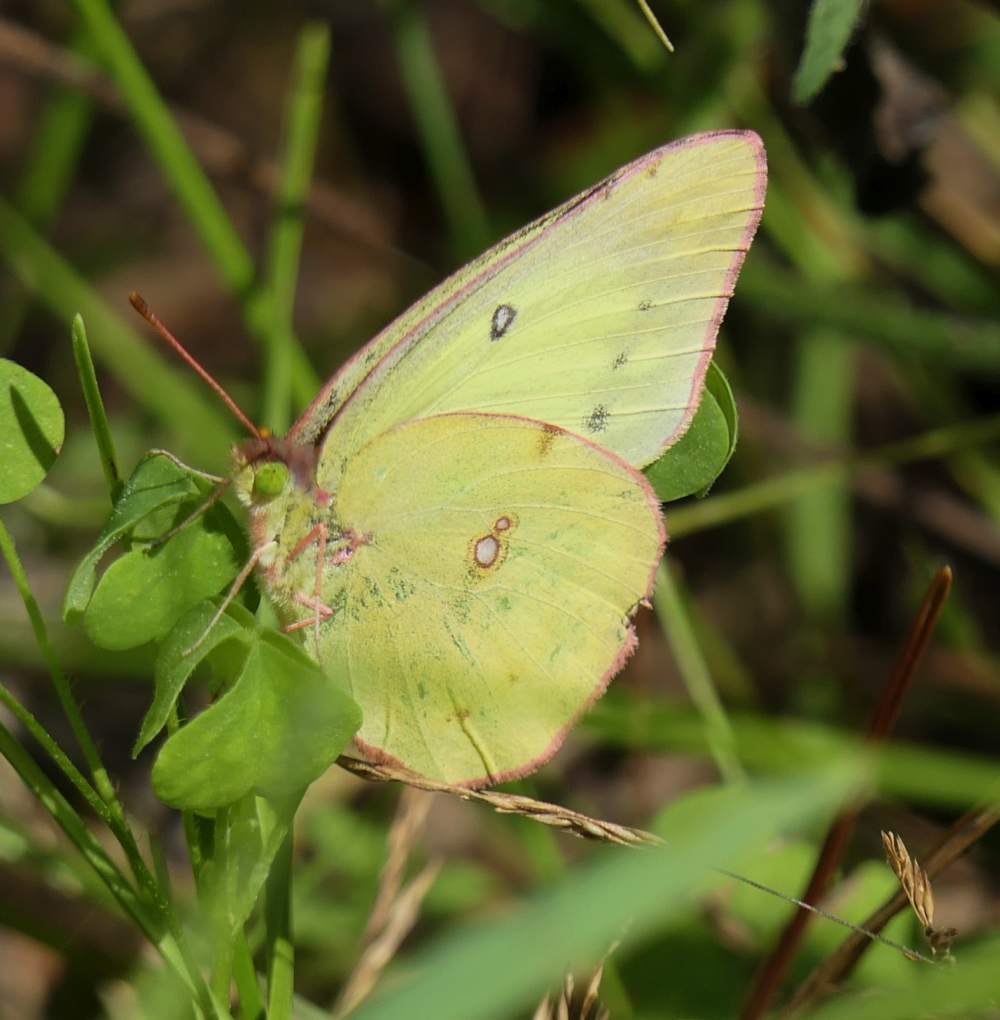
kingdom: Animalia
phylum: Arthropoda
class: Insecta
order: Lepidoptera
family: Pieridae
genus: Colias
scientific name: Colias philodice
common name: Clouded sulphur
